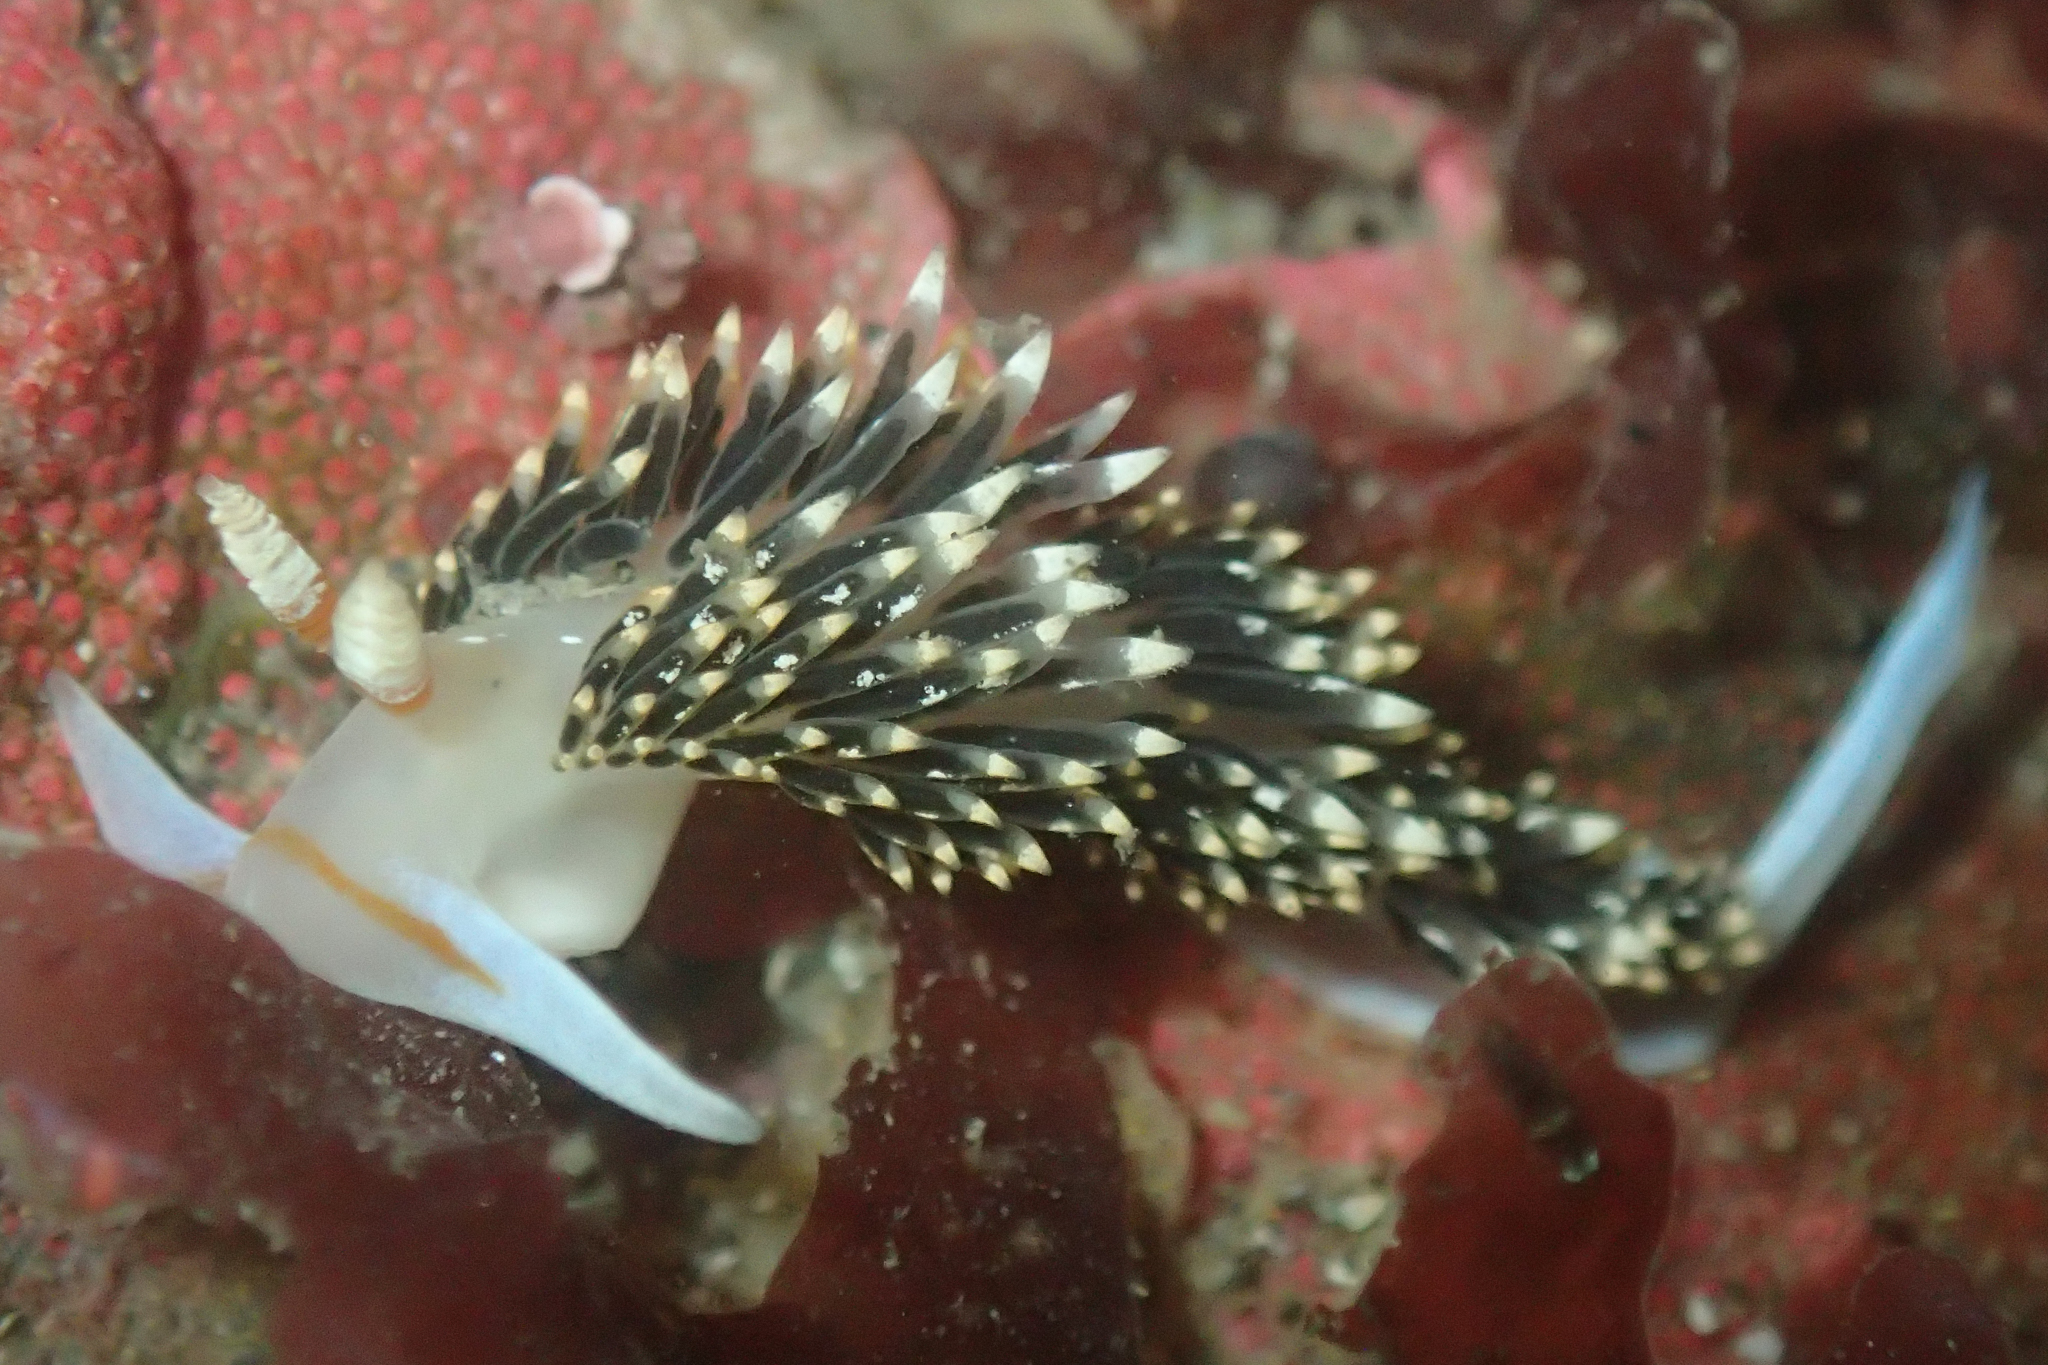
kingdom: Animalia
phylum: Mollusca
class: Gastropoda
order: Nudibranchia
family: Facelinidae
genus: Phidiana
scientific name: Phidiana hiltoni
